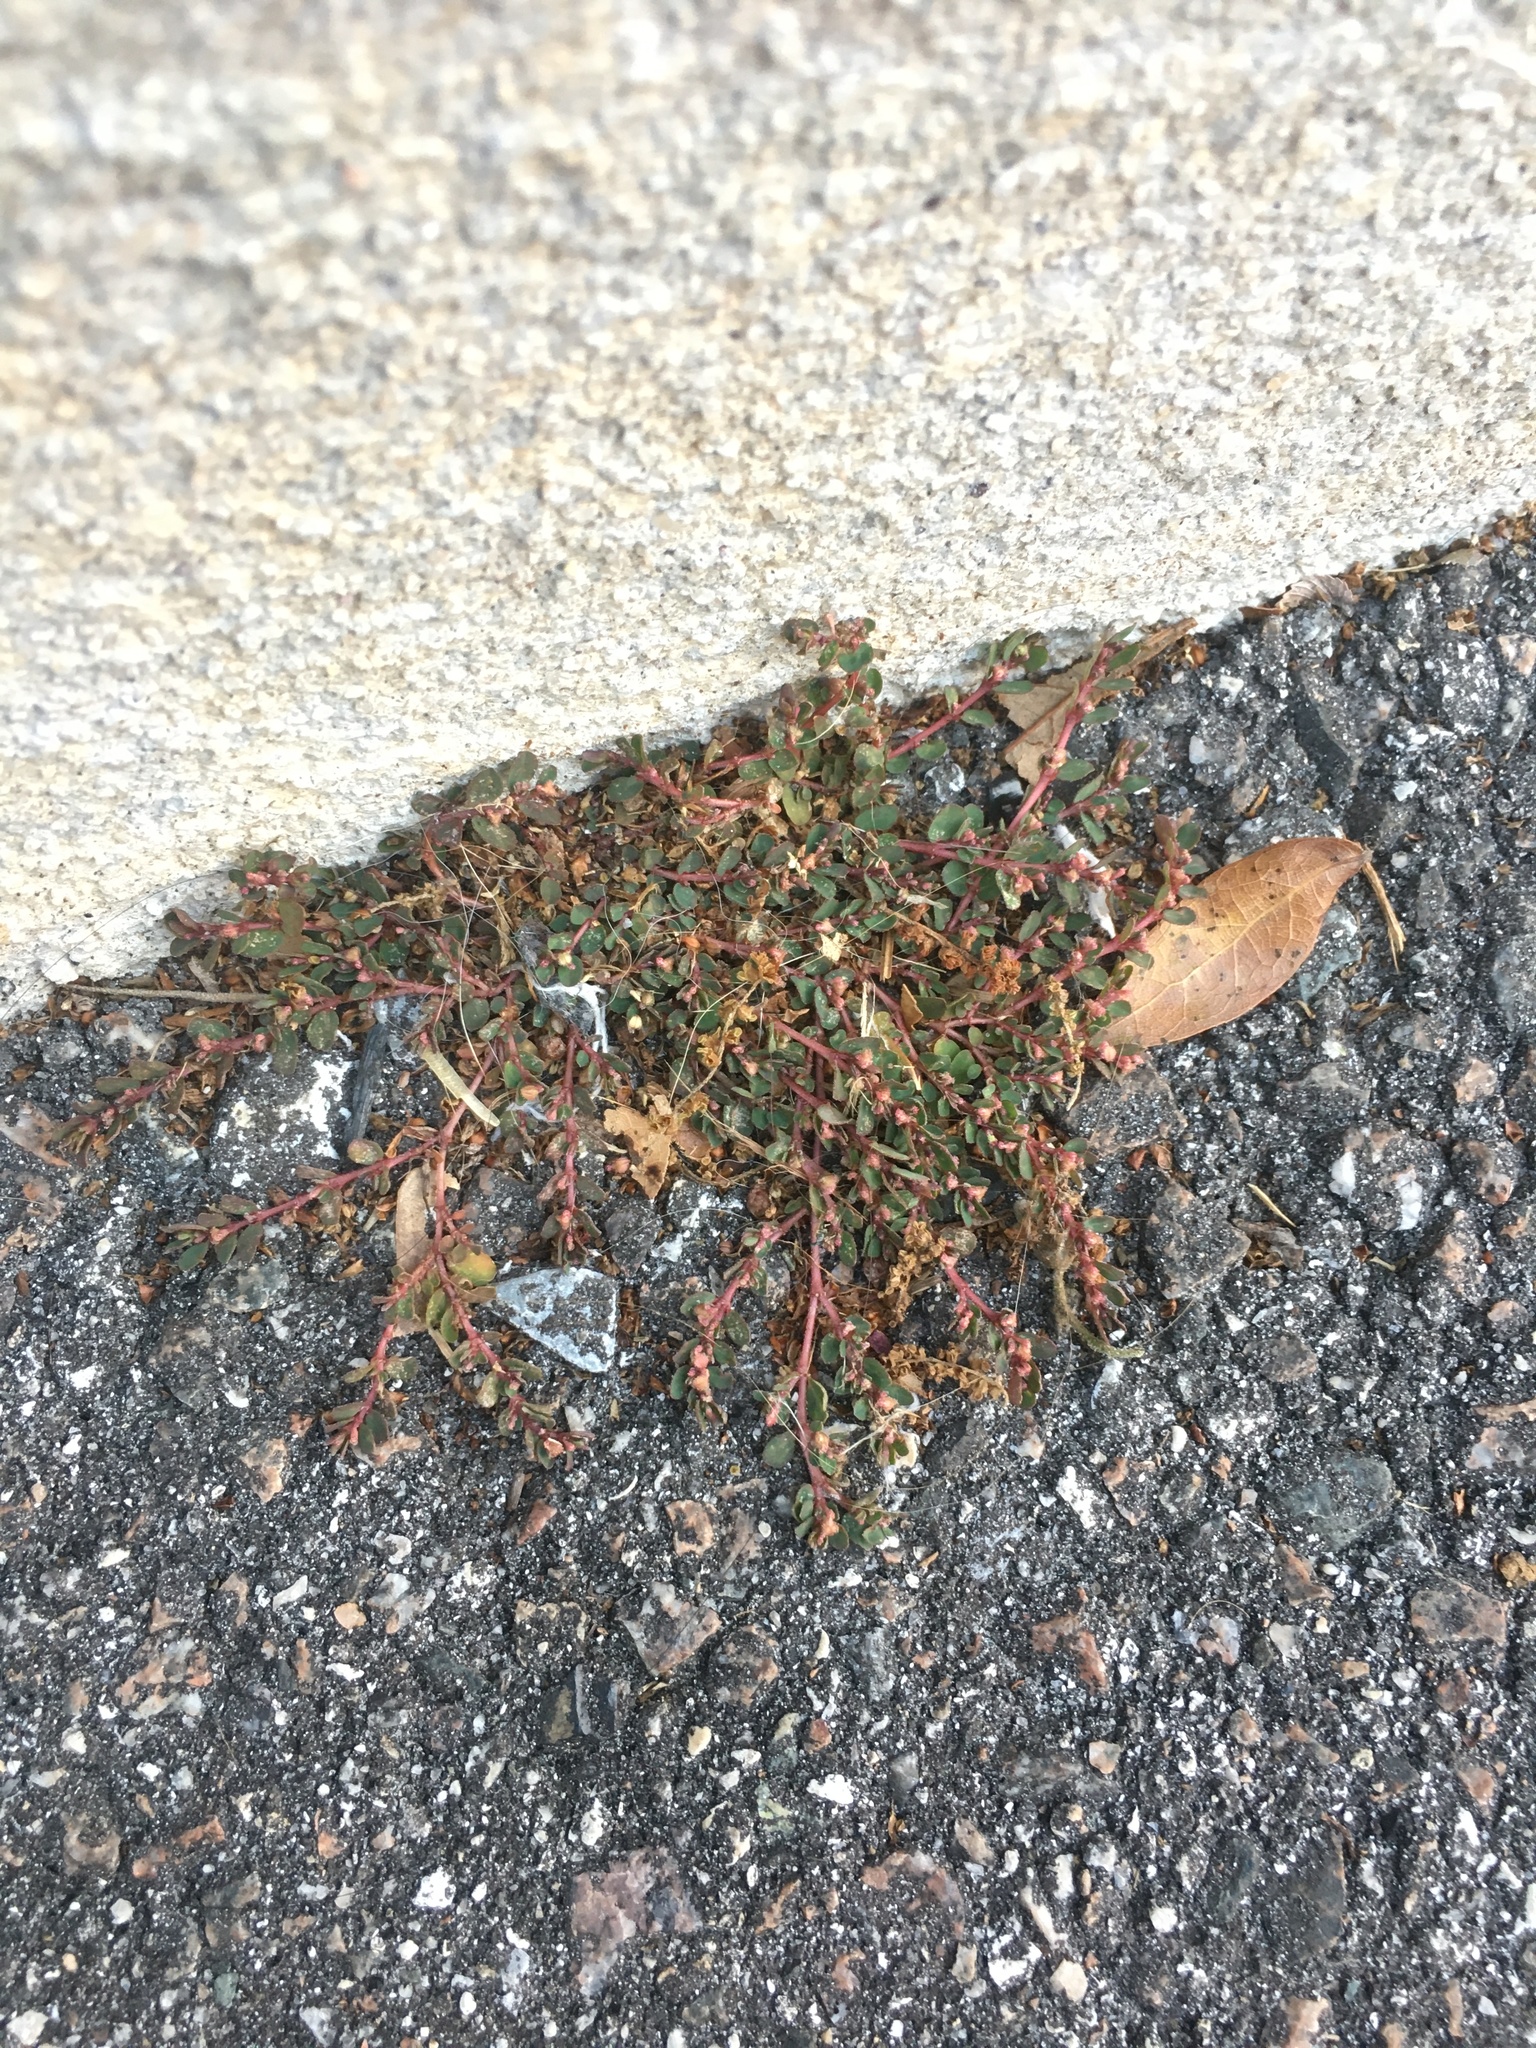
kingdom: Plantae
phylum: Tracheophyta
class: Magnoliopsida
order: Malpighiales
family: Euphorbiaceae
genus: Euphorbia
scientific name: Euphorbia prostrata
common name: Prostrate sandmat
